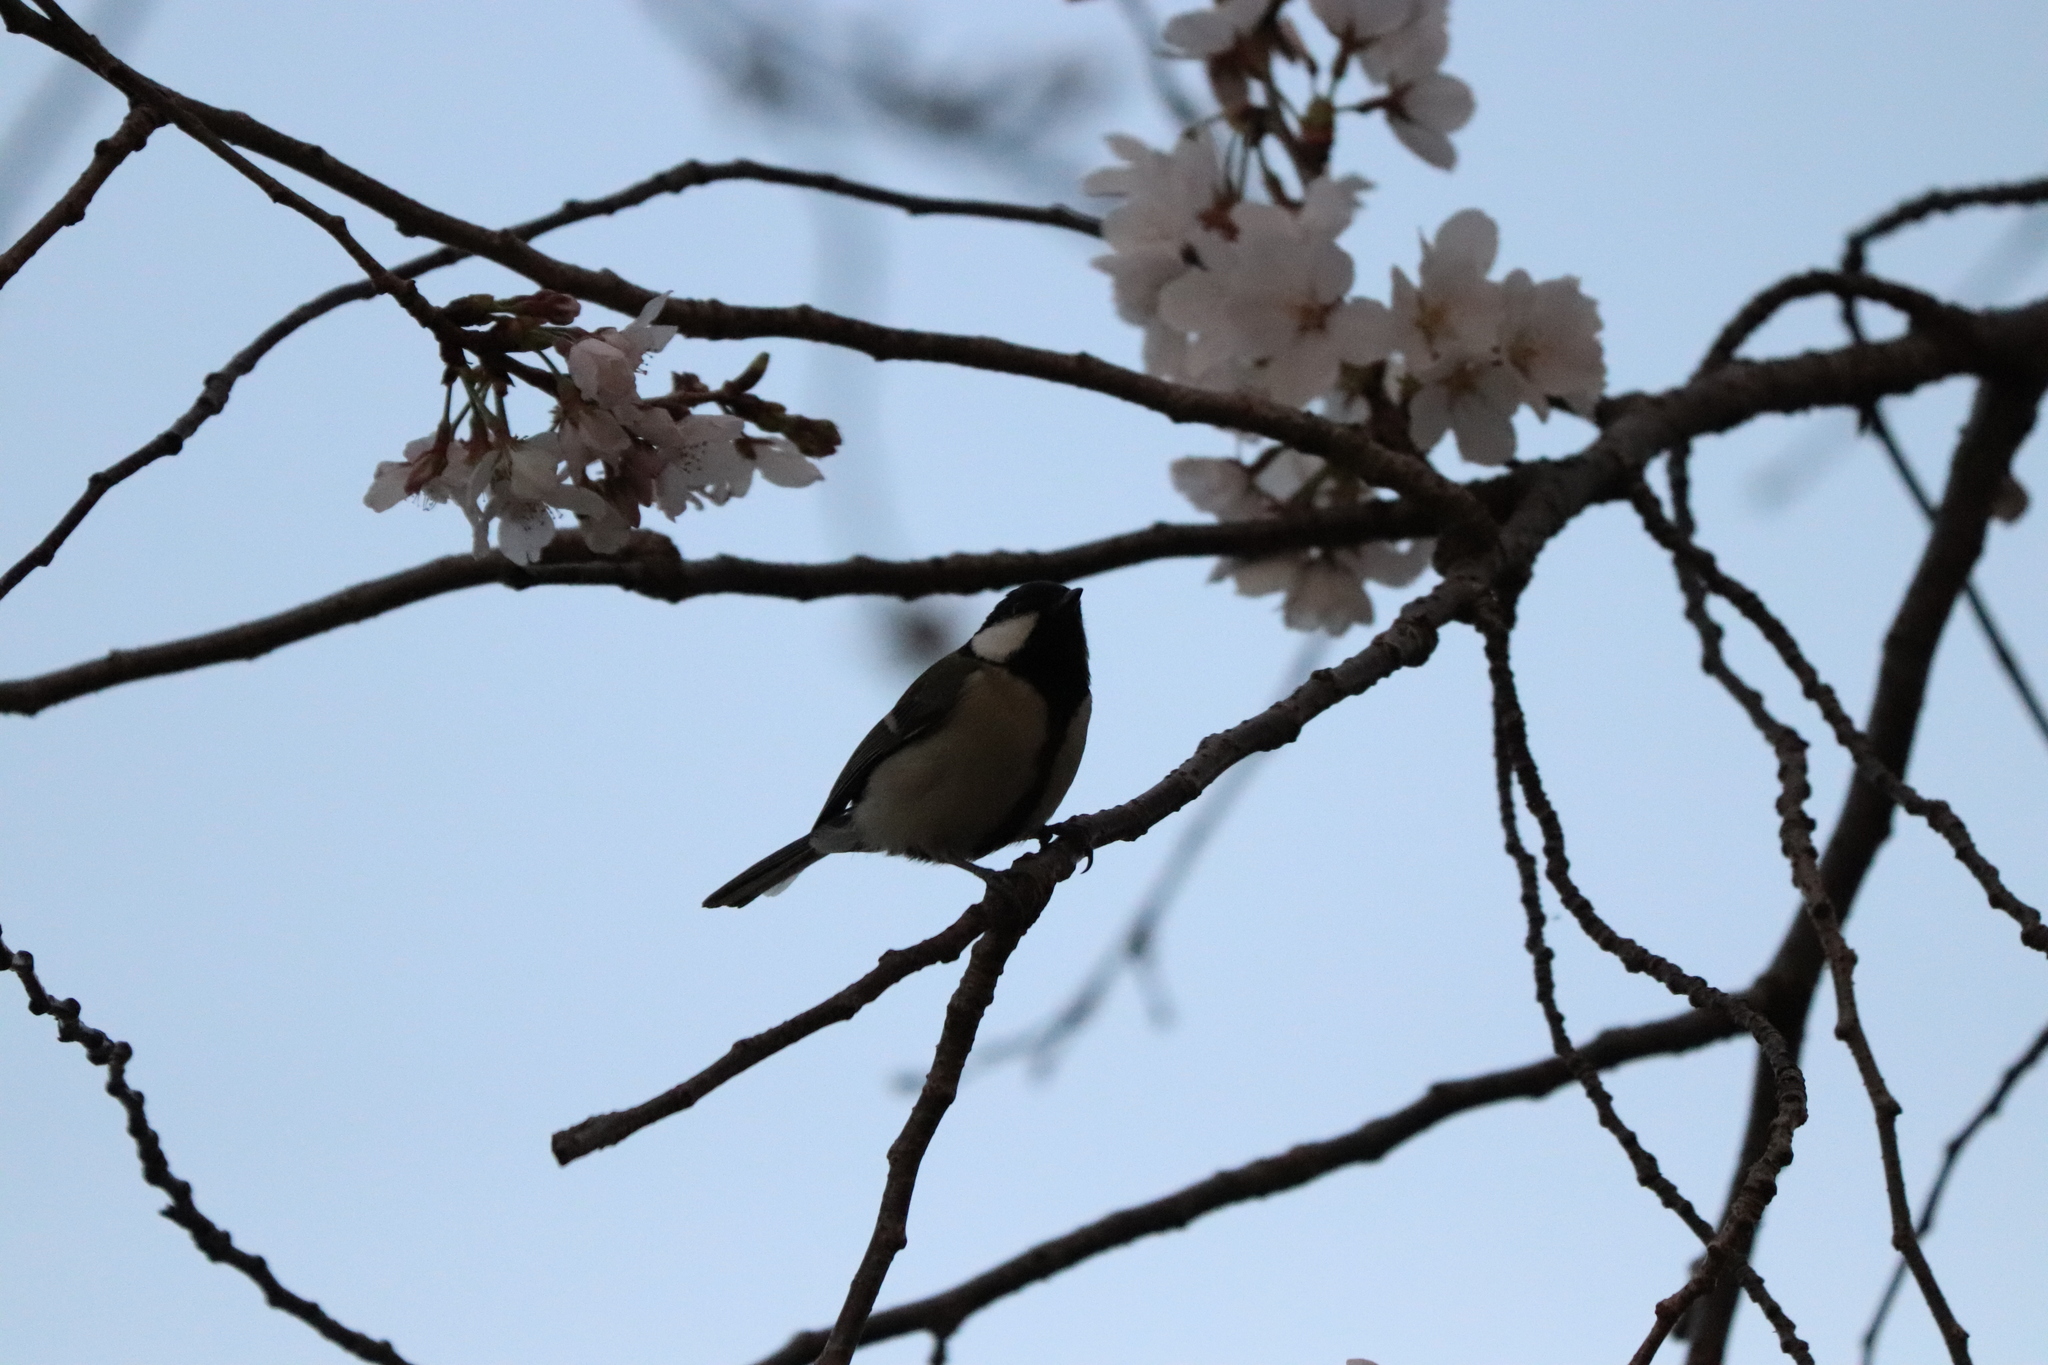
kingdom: Animalia
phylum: Chordata
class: Aves
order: Passeriformes
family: Paridae
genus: Parus
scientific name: Parus minor
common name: Japanese tit
